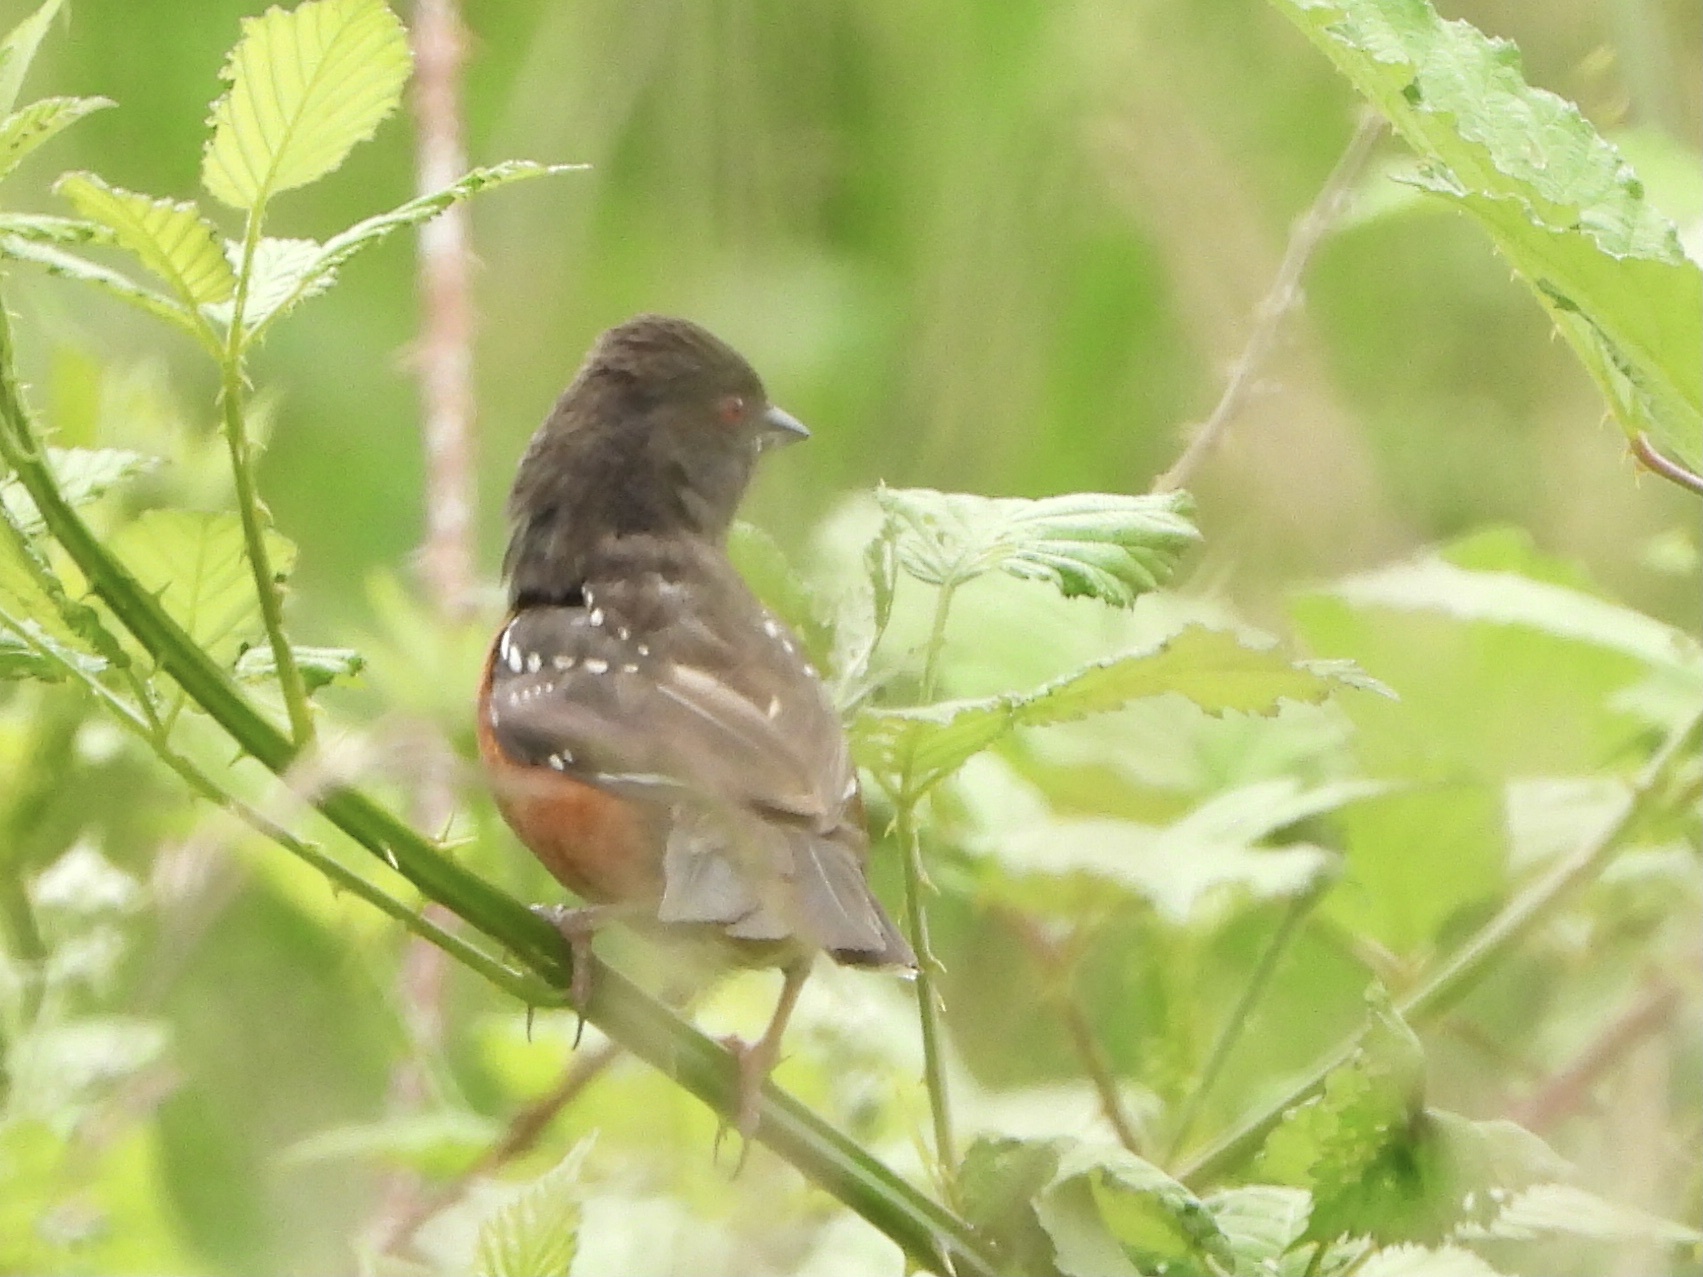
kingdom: Animalia
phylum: Chordata
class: Aves
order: Passeriformes
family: Passerellidae
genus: Pipilo
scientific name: Pipilo maculatus
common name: Spotted towhee
